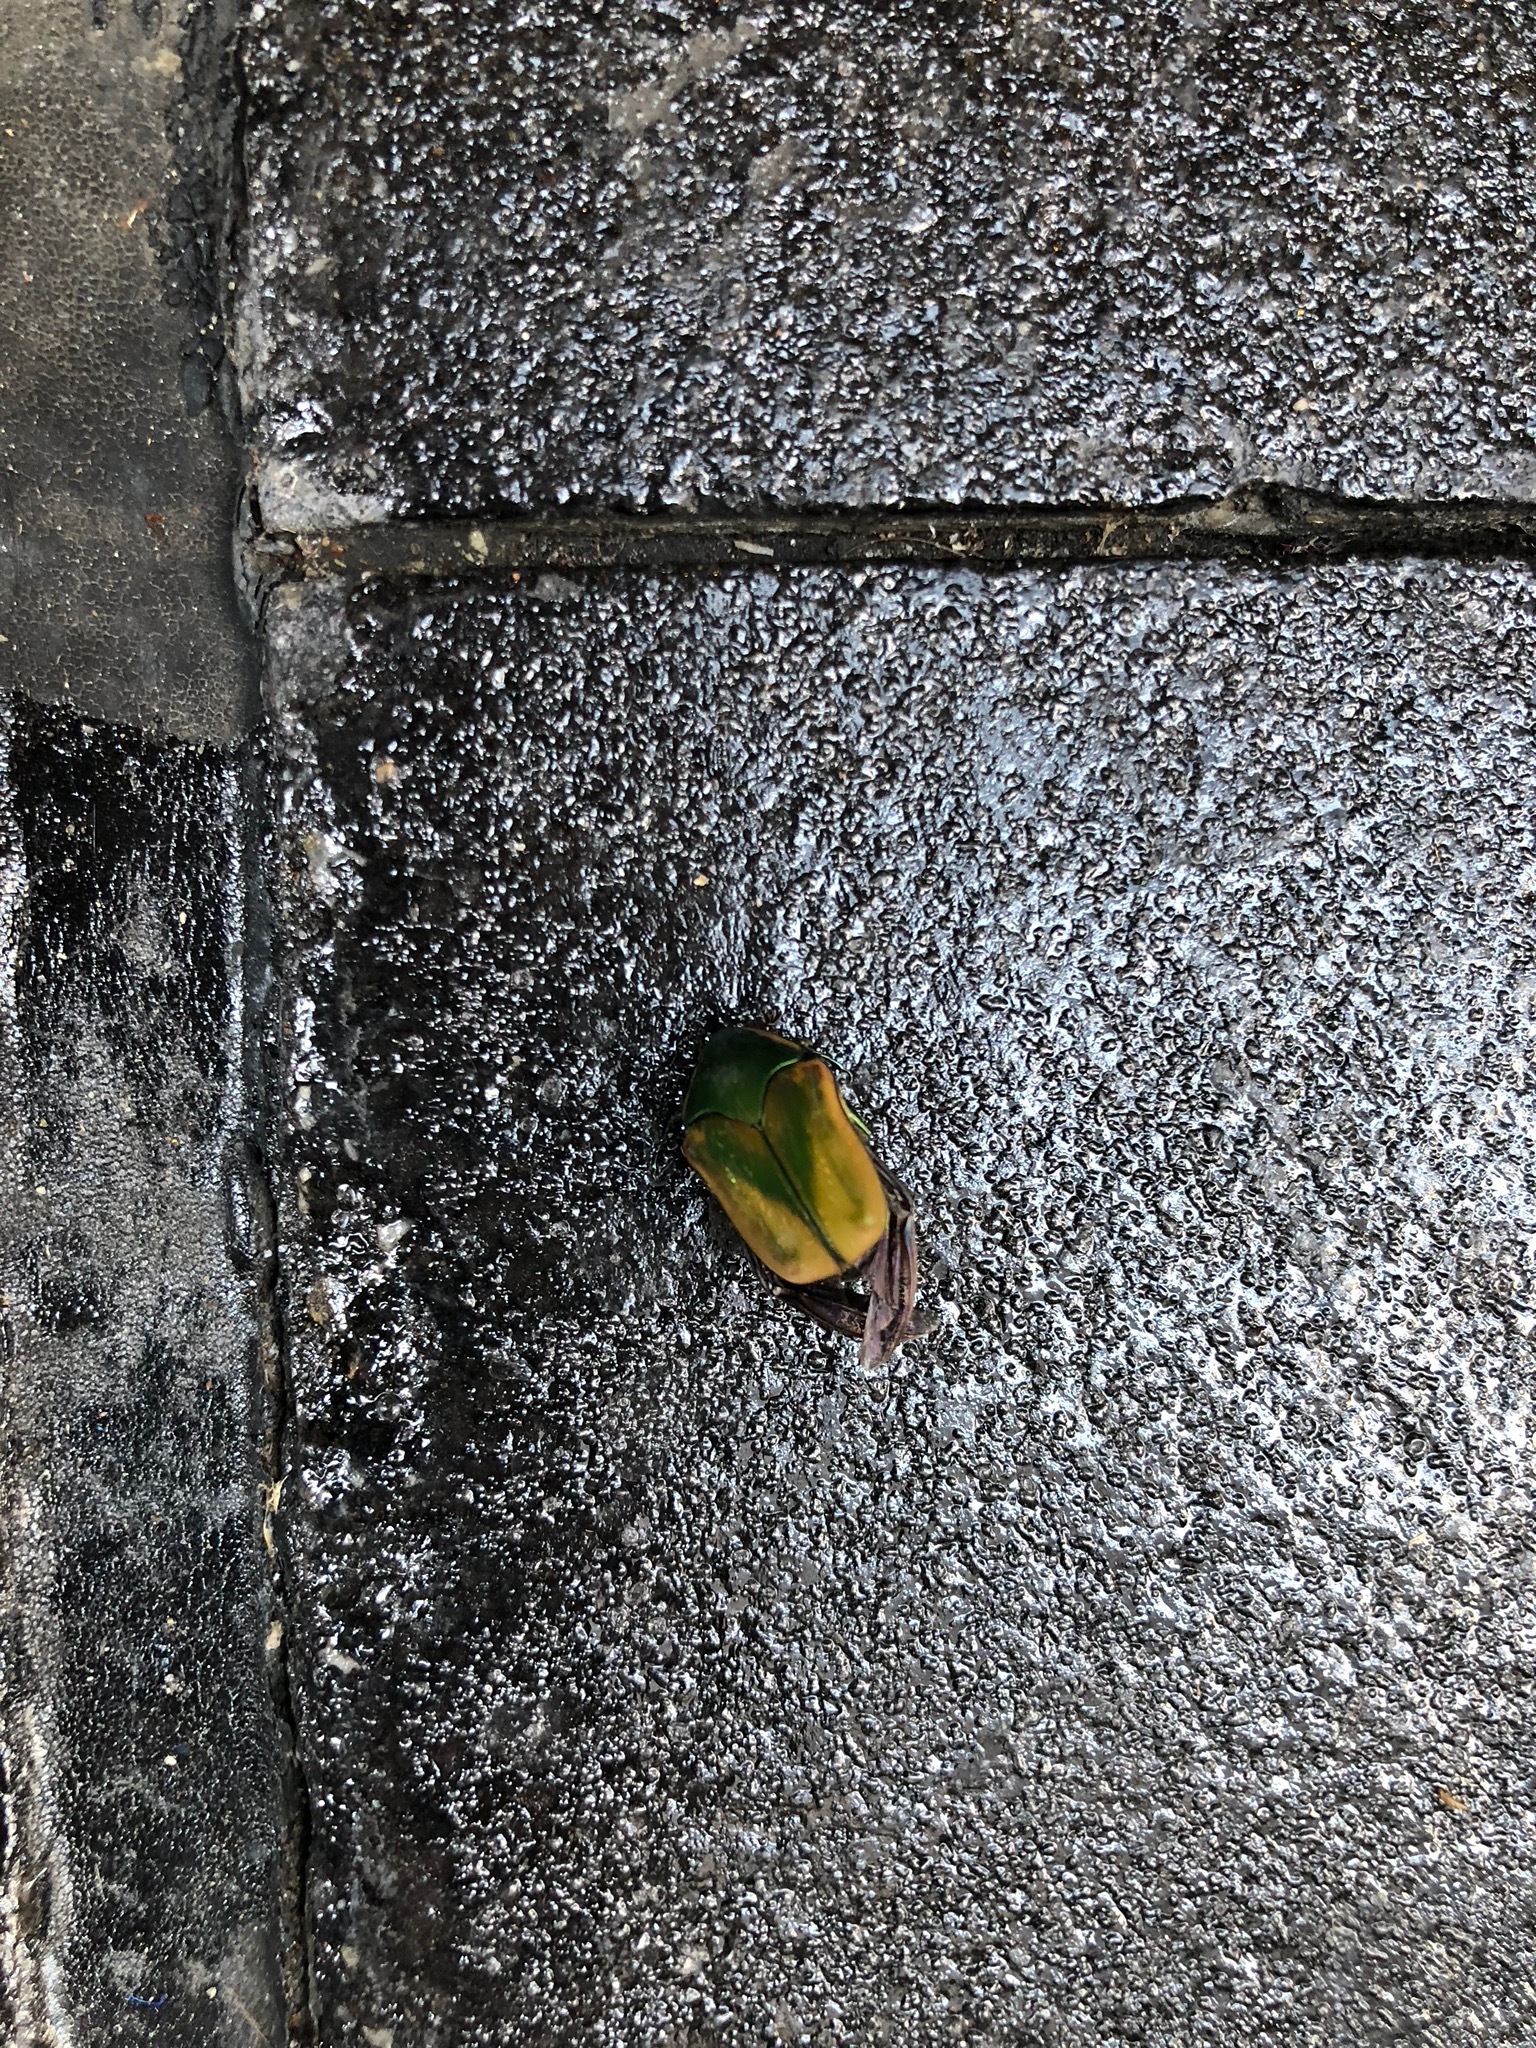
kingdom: Animalia
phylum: Arthropoda
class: Insecta
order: Coleoptera
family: Scarabaeidae
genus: Cotinis
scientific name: Cotinis nitida
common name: Common green june beetle
